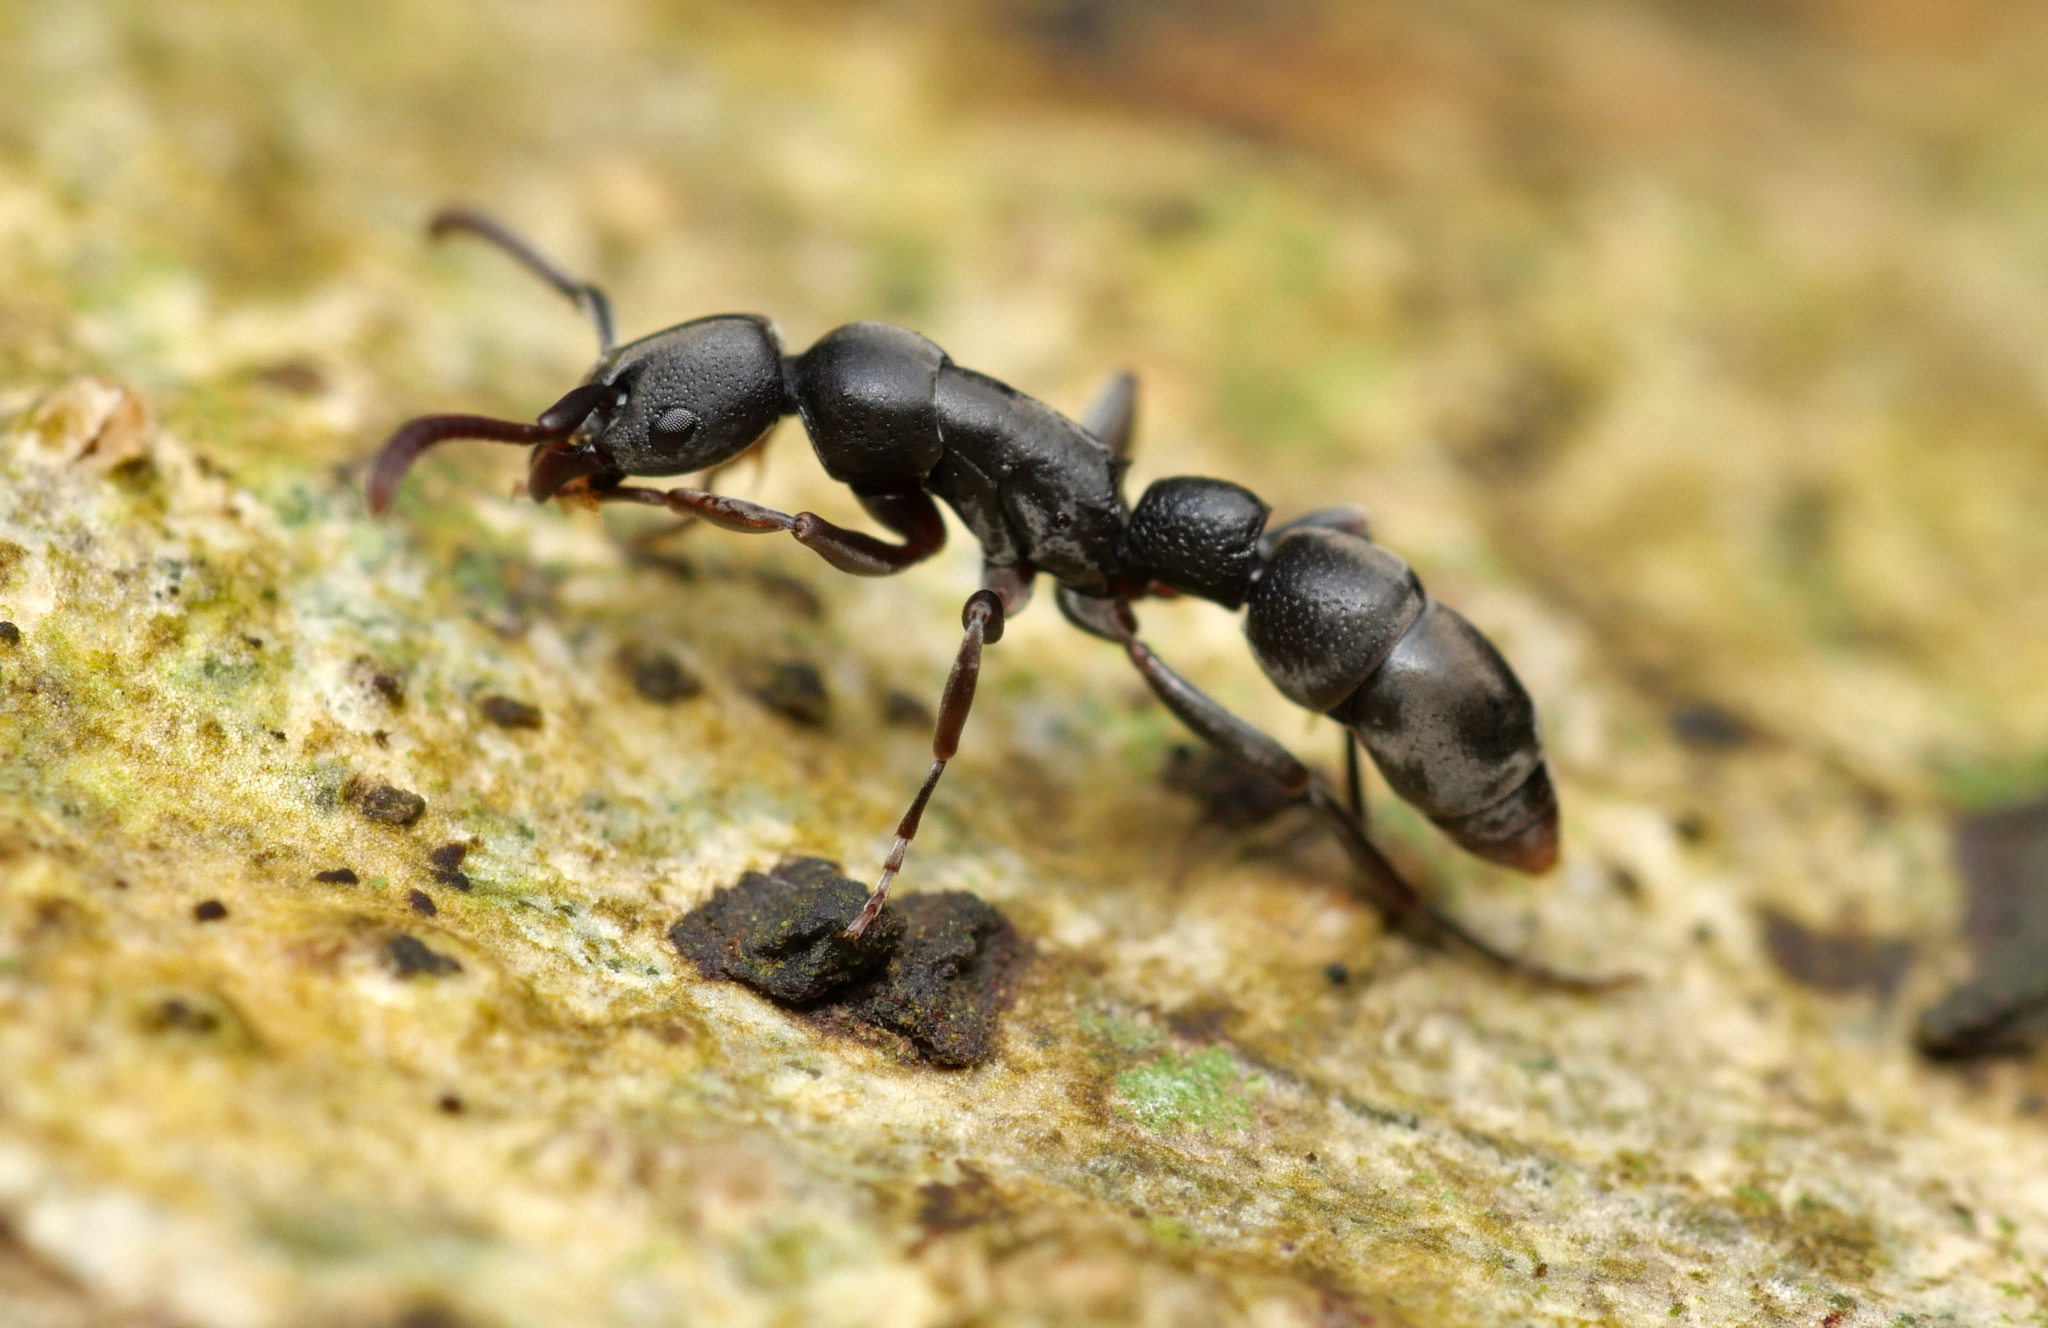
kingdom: Animalia
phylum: Arthropoda
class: Insecta
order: Hymenoptera
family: Formicidae
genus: Platythyrea
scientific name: Platythyrea parallela
